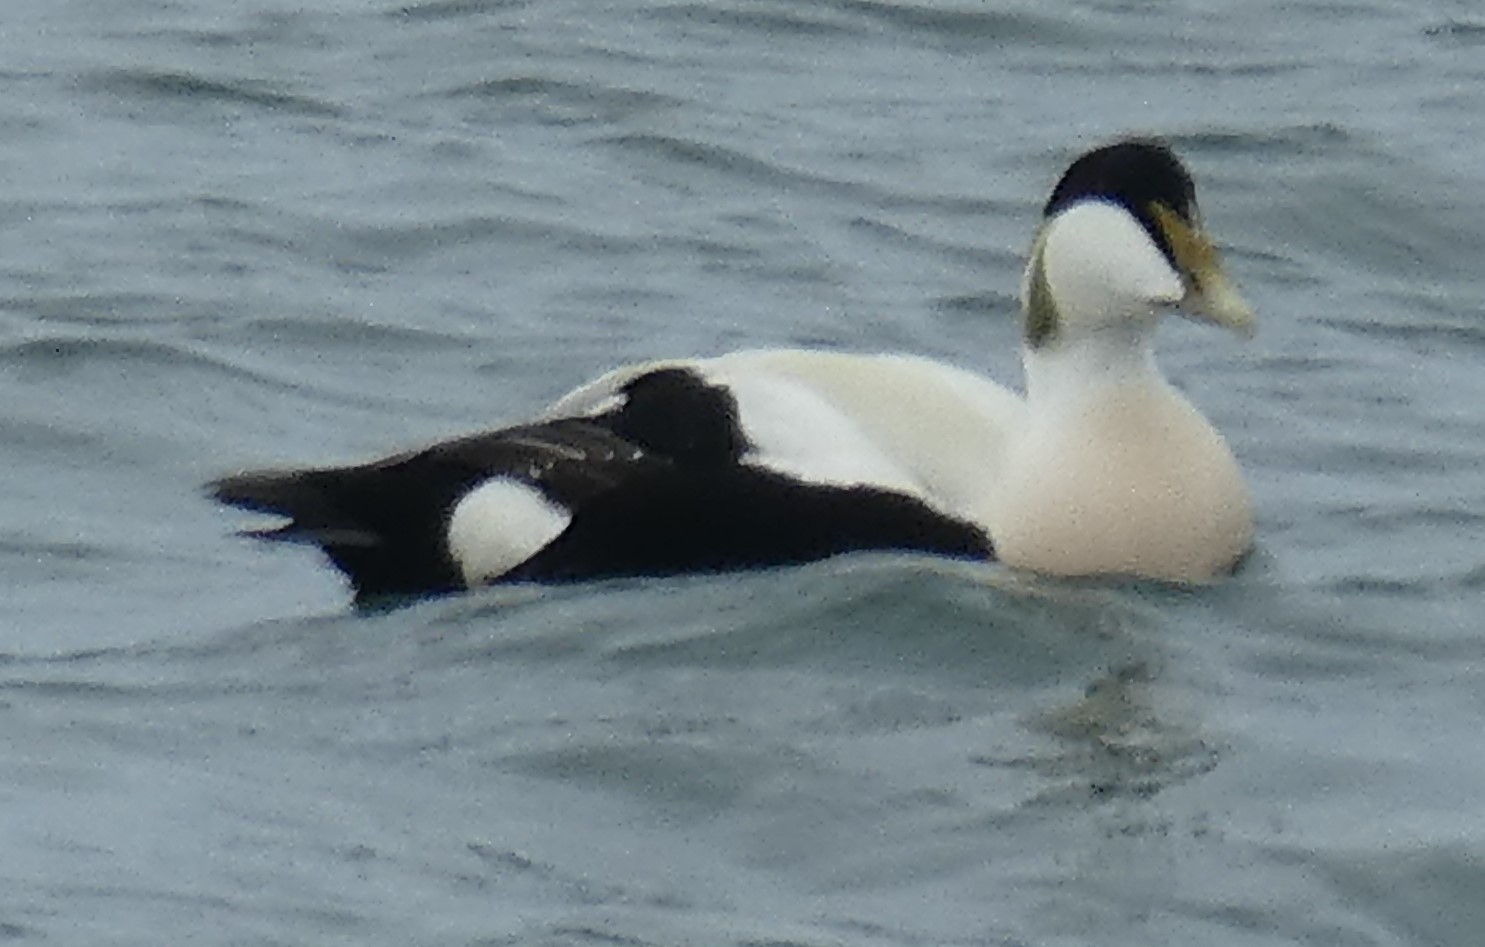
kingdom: Animalia
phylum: Chordata
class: Aves
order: Anseriformes
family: Anatidae
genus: Somateria
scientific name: Somateria mollissima
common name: Common eider
